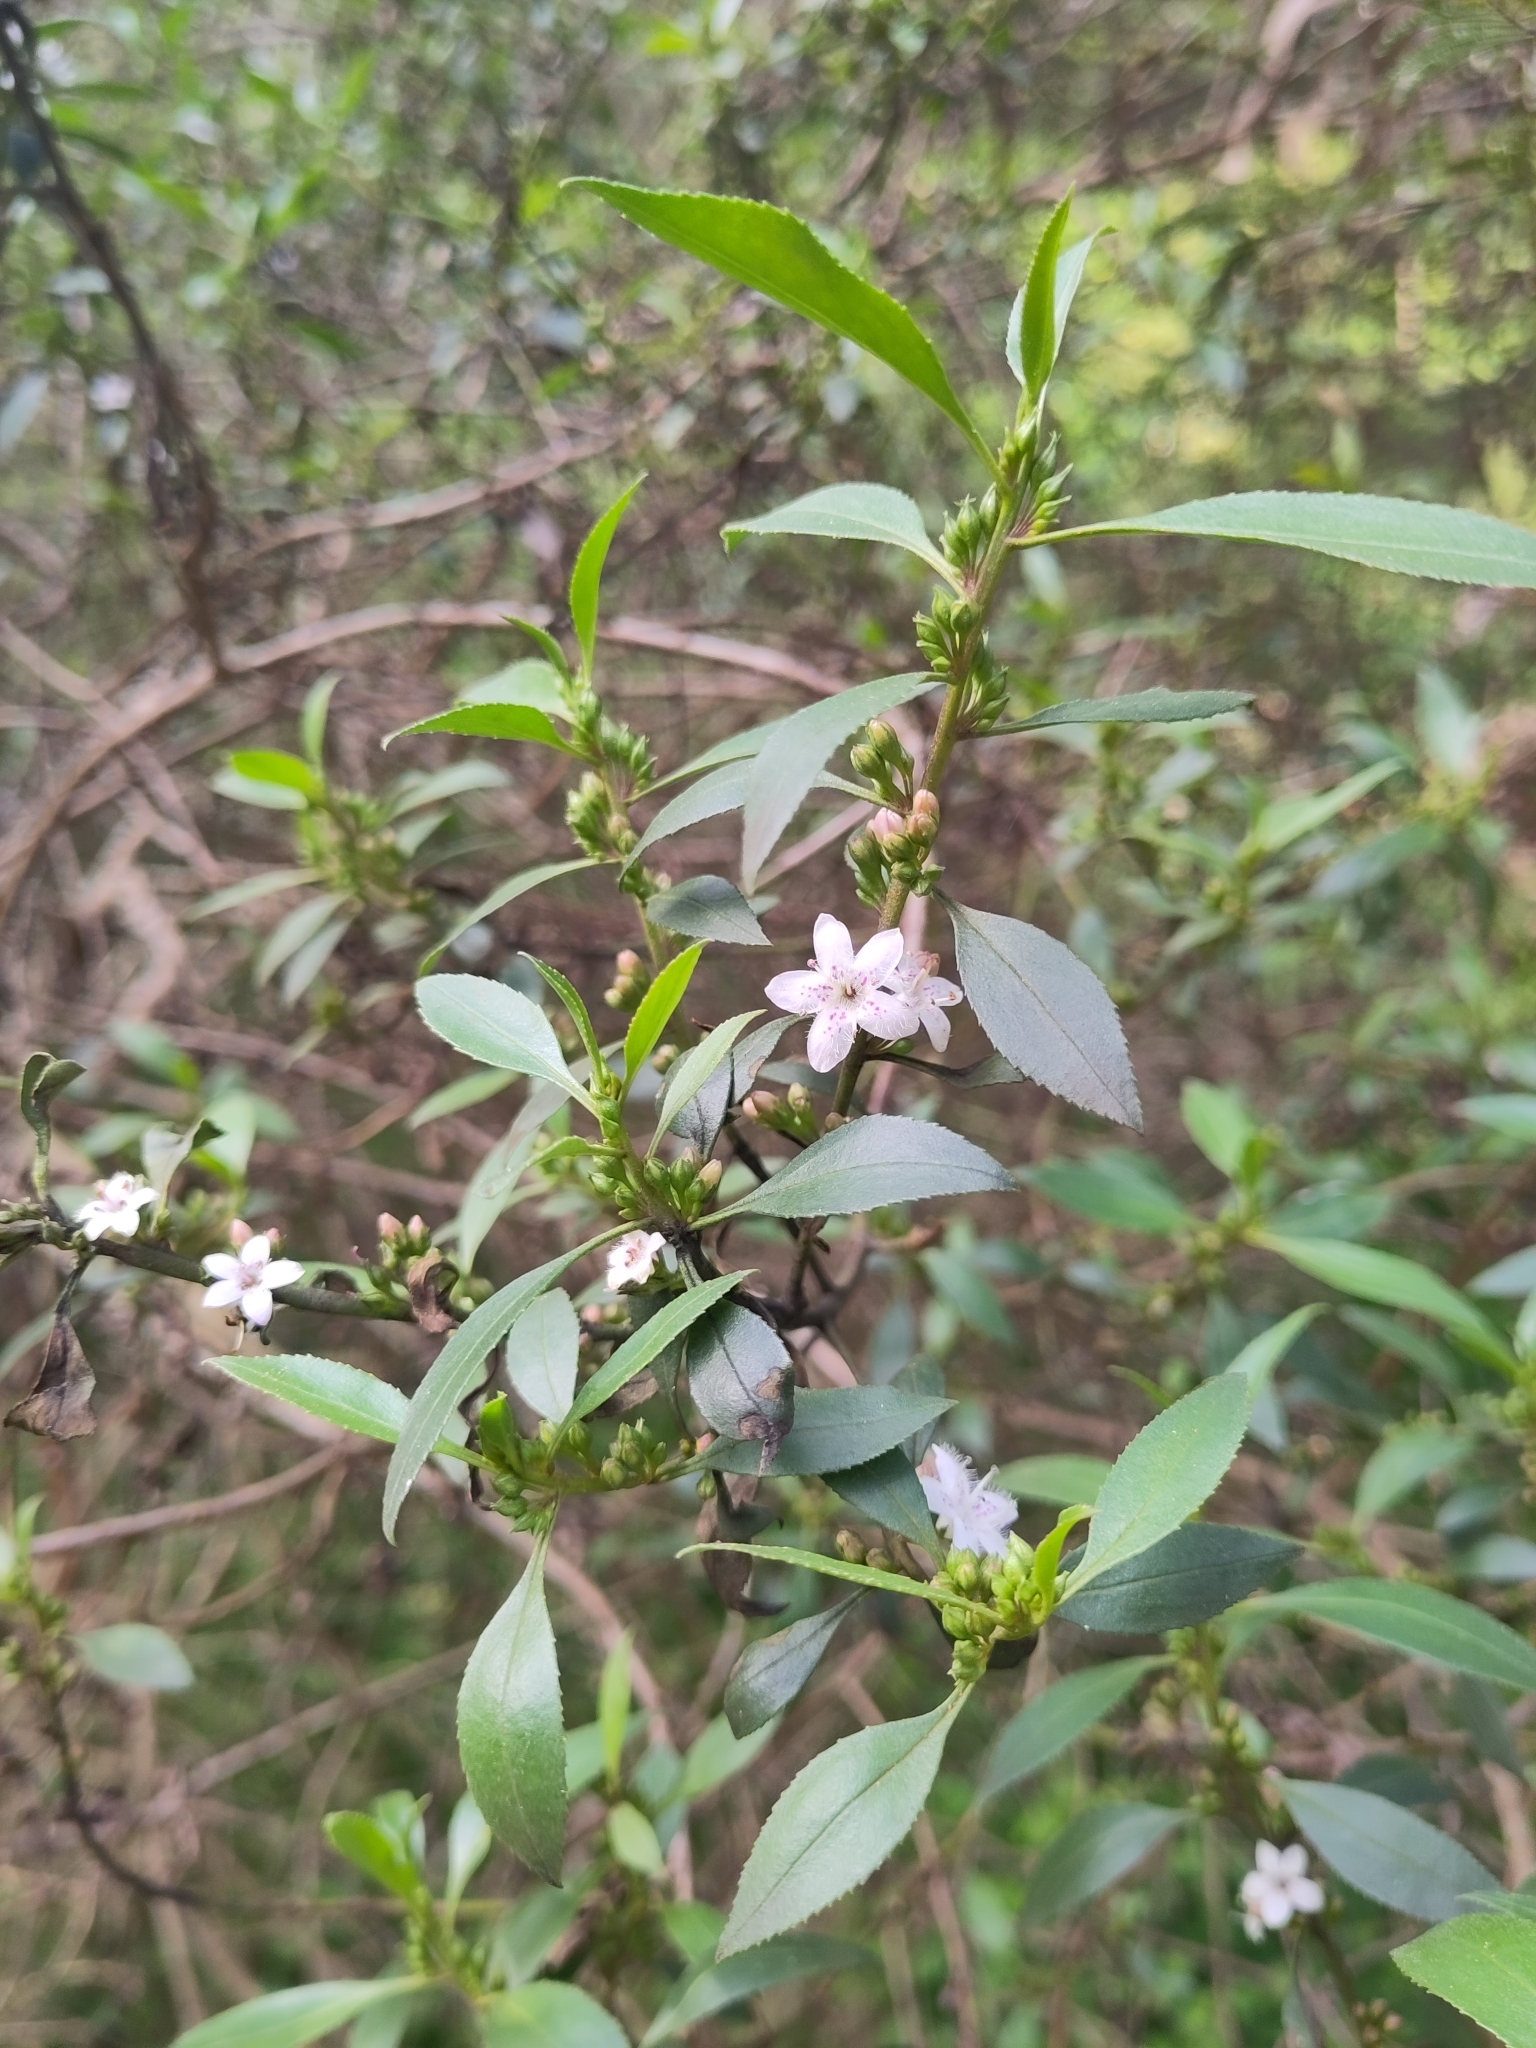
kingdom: Plantae
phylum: Tracheophyta
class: Magnoliopsida
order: Lamiales
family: Scrophulariaceae
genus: Myoporum
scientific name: Myoporum petiolatum
